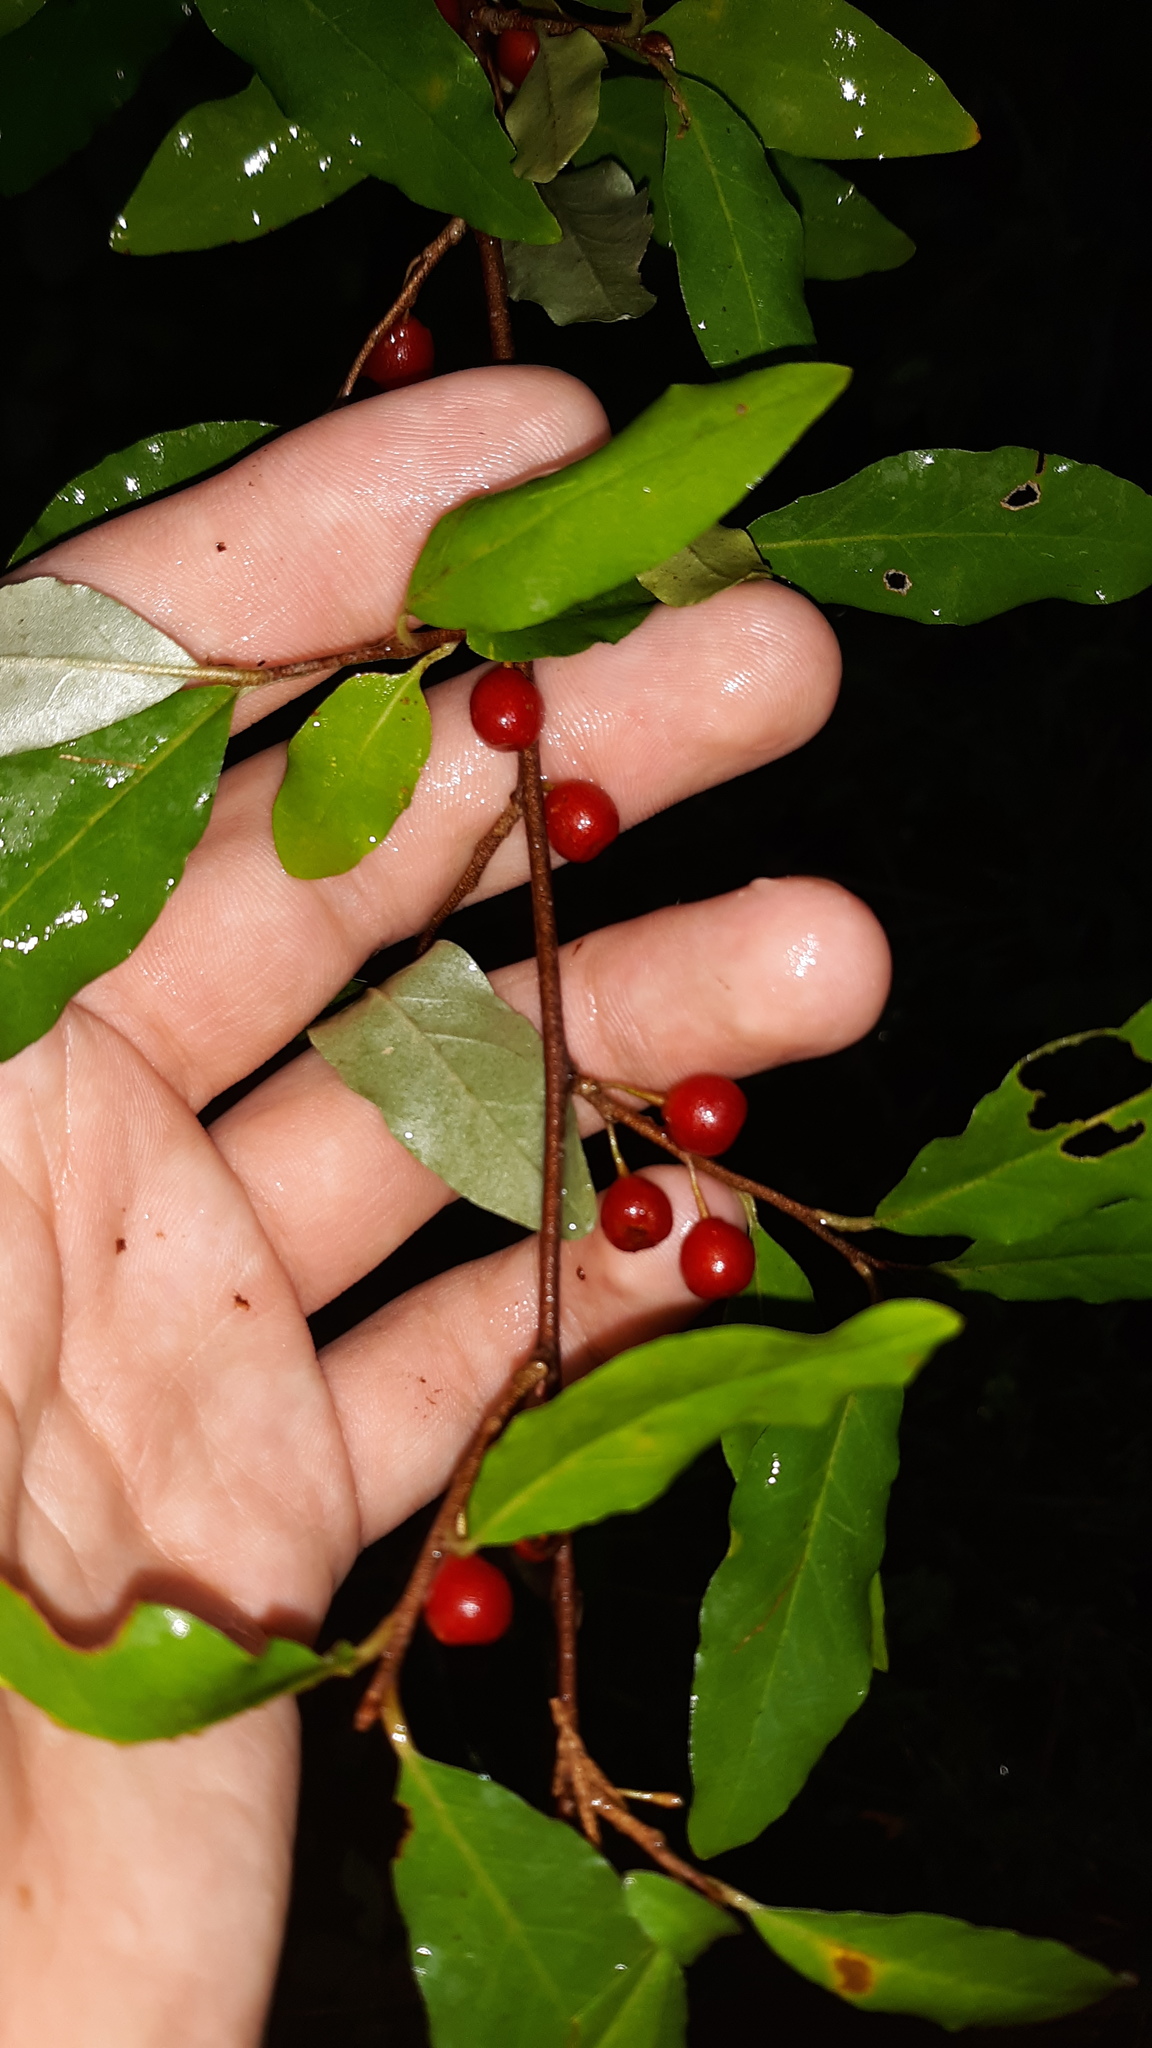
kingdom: Plantae
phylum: Tracheophyta
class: Magnoliopsida
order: Rosales
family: Elaeagnaceae
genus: Elaeagnus
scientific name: Elaeagnus umbellata
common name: Autumn olive
